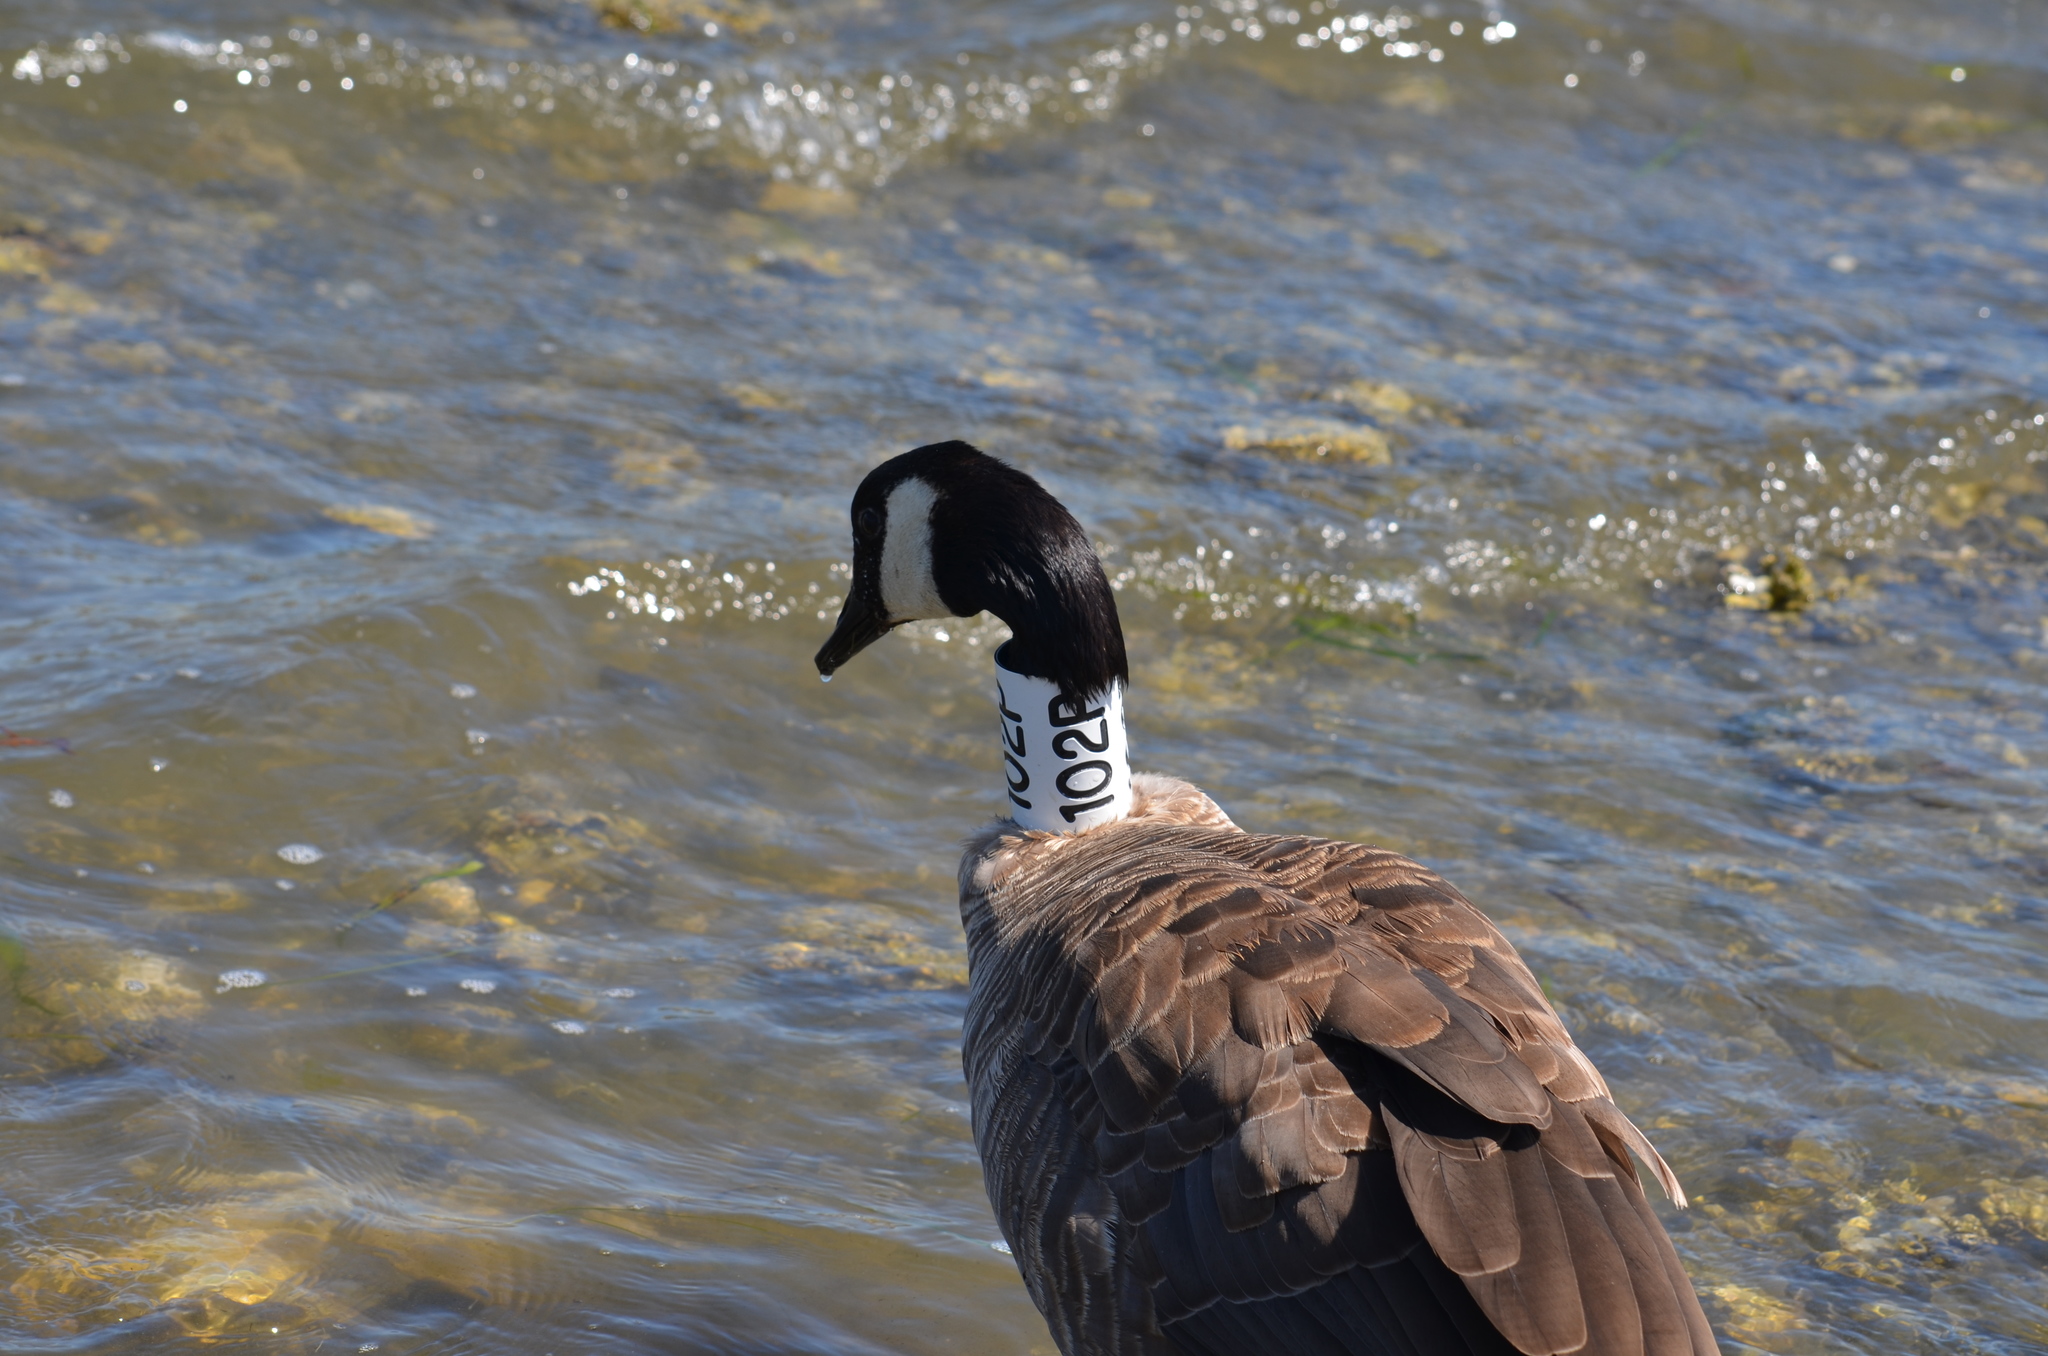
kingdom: Animalia
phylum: Chordata
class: Aves
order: Anseriformes
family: Anatidae
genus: Branta
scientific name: Branta canadensis
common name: Canada goose
